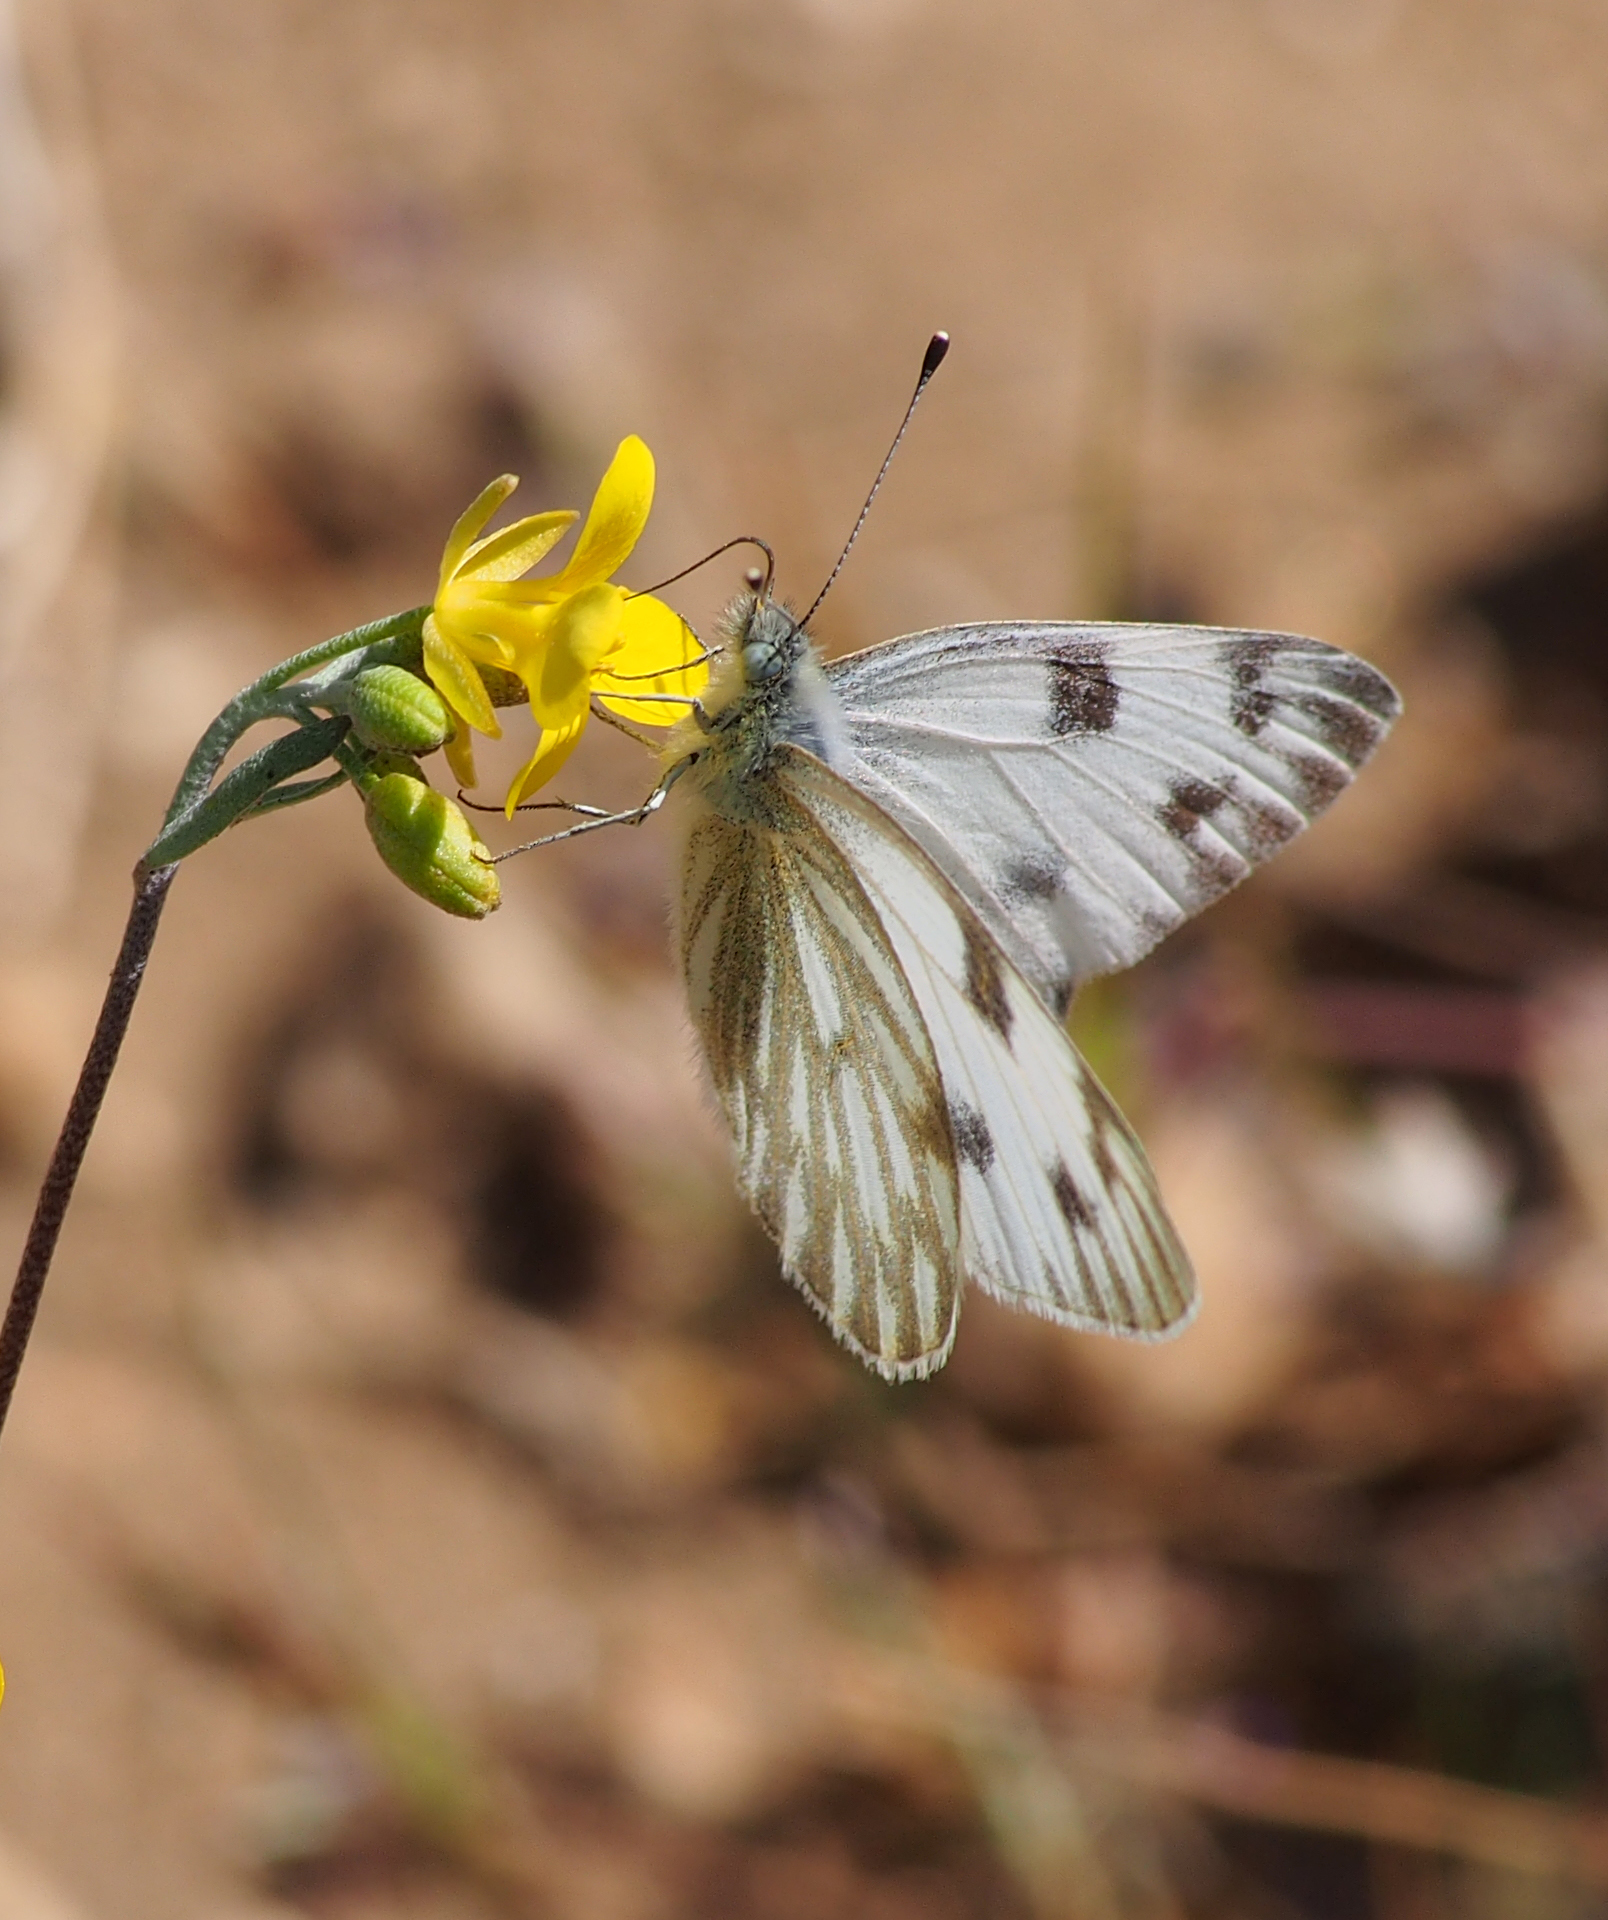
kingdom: Animalia
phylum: Arthropoda
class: Insecta
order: Lepidoptera
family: Pieridae
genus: Pontia
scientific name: Pontia protodice
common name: Checkered white
